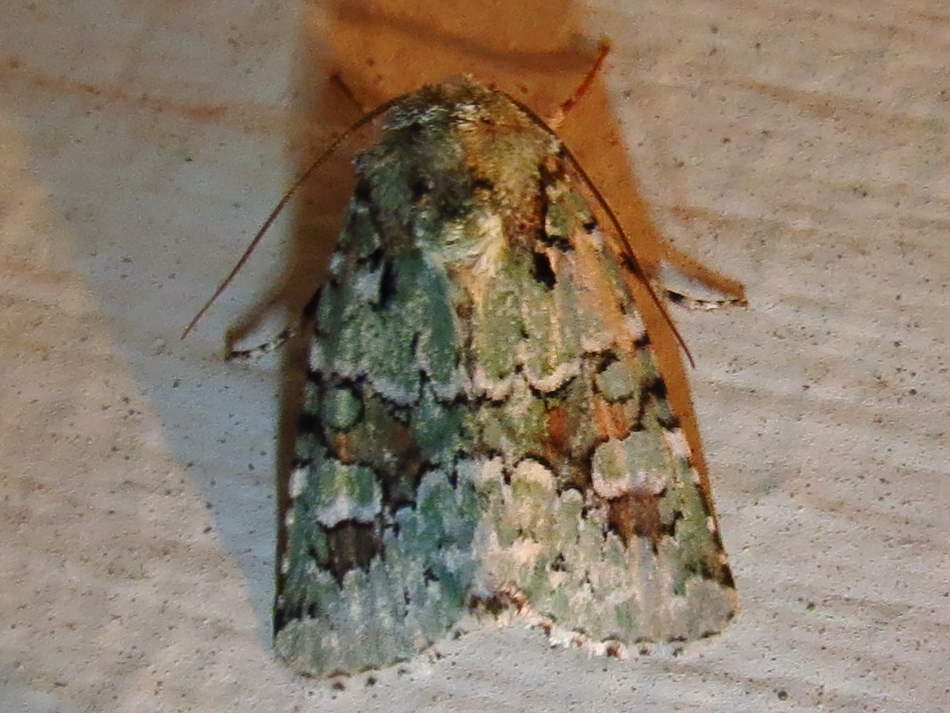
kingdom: Animalia
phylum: Arthropoda
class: Insecta
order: Lepidoptera
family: Noctuidae
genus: Lacinipolia
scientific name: Lacinipolia laudabilis
